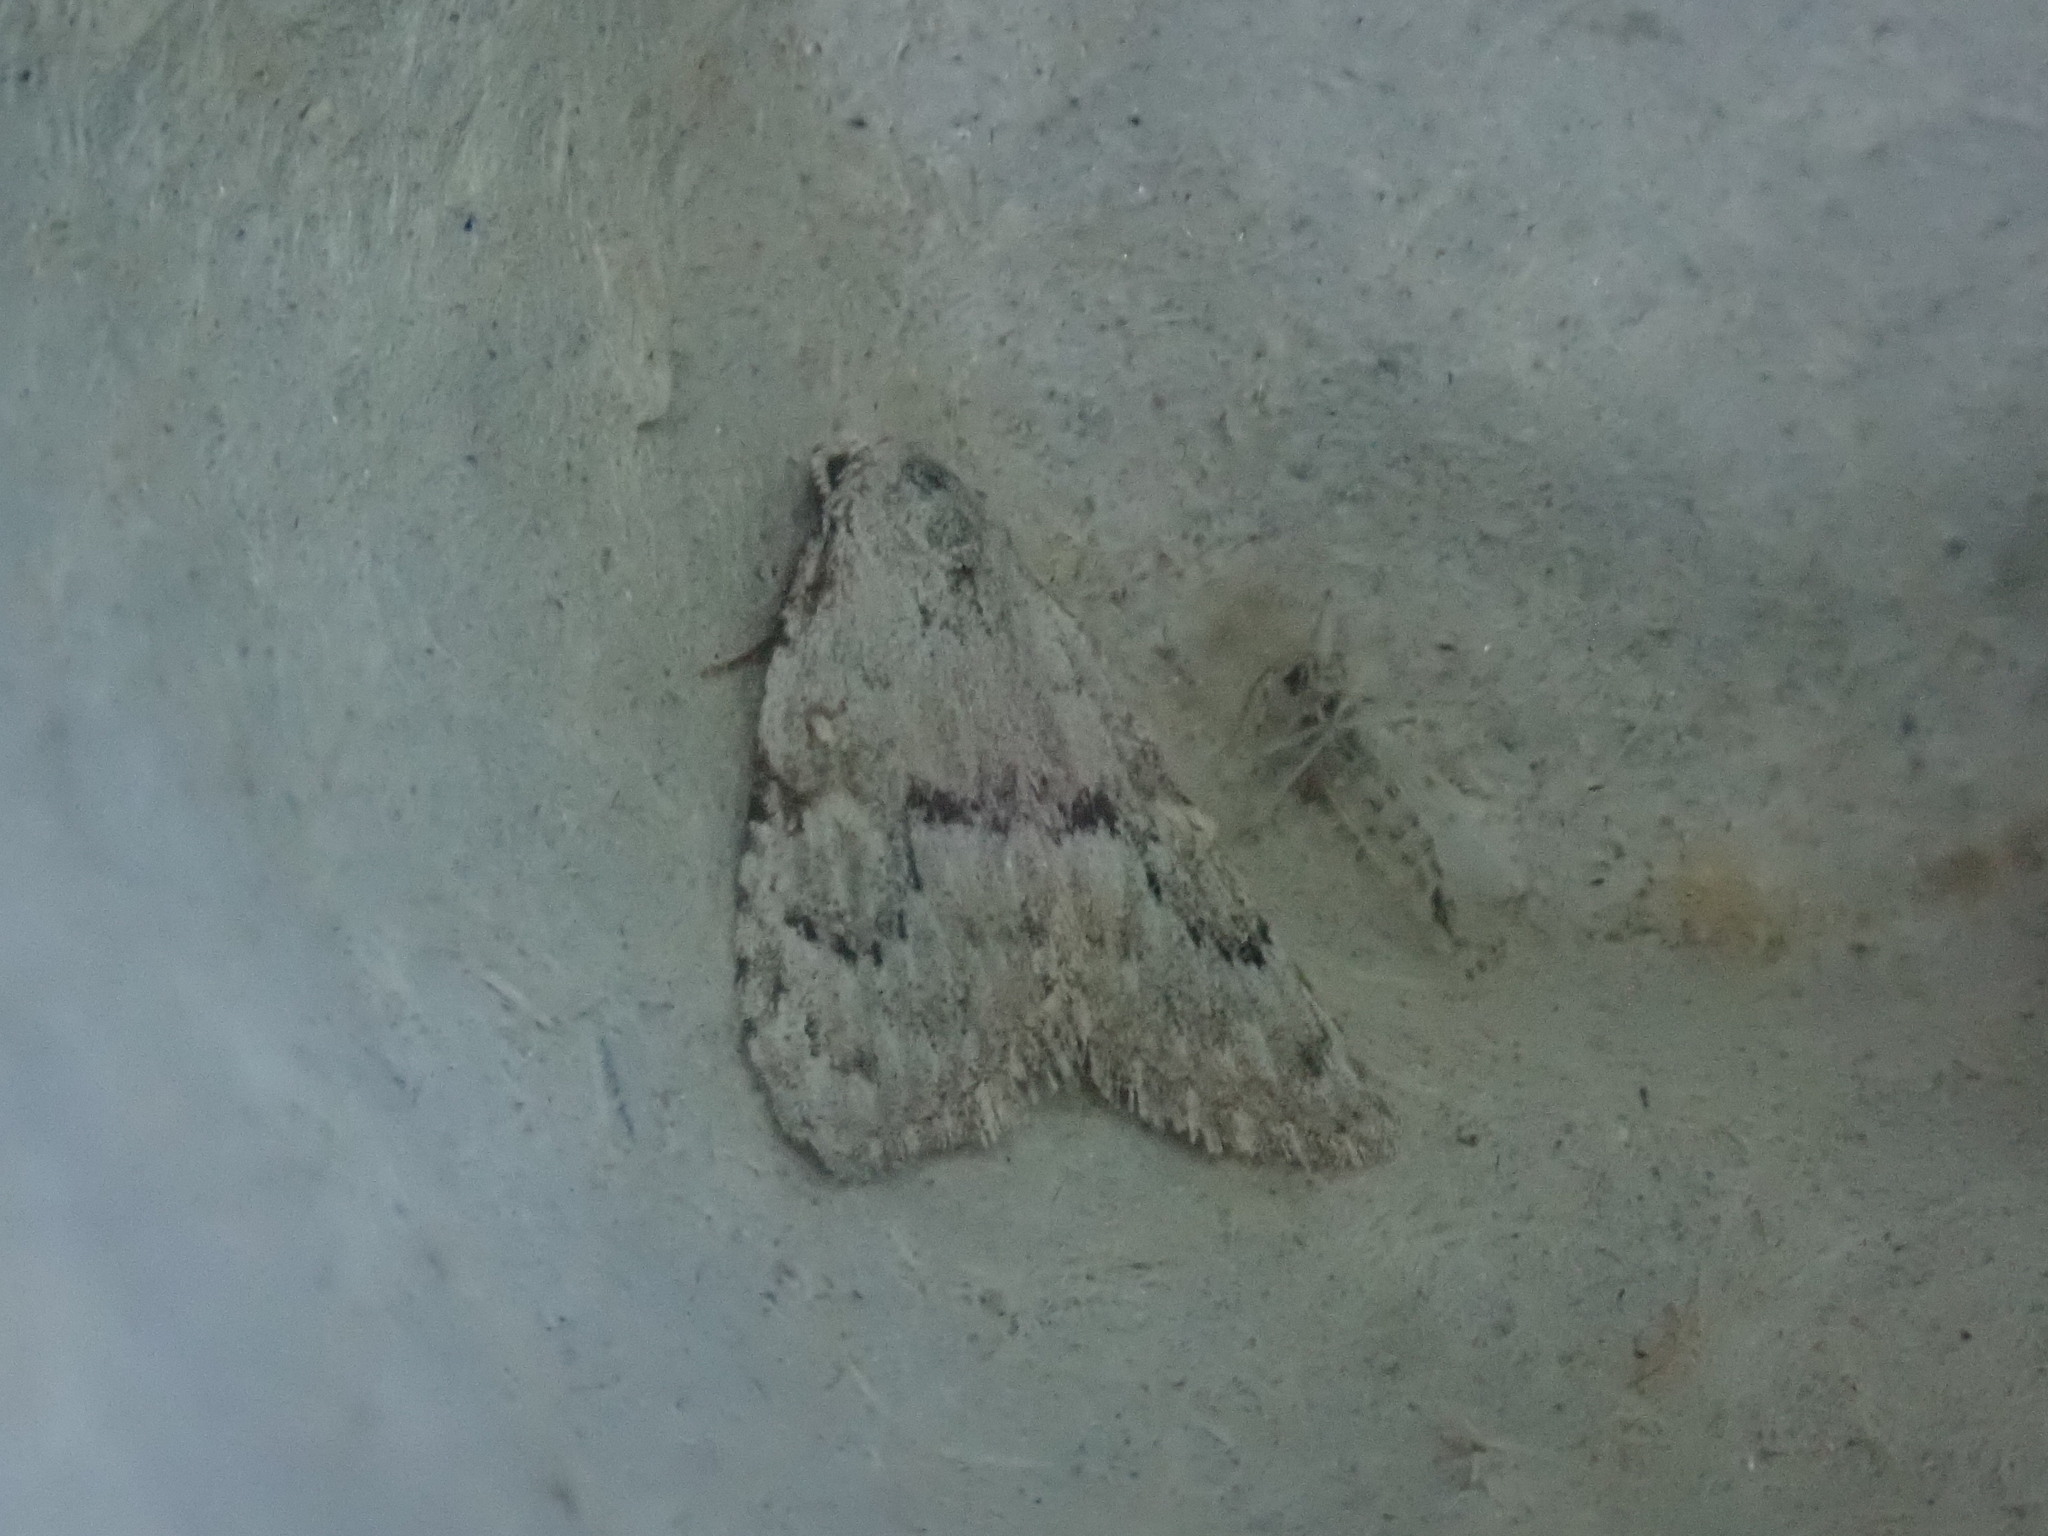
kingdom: Animalia
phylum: Arthropoda
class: Insecta
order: Lepidoptera
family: Nolidae
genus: Meganola
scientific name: Meganola minuscula
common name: Confused meganola moth
